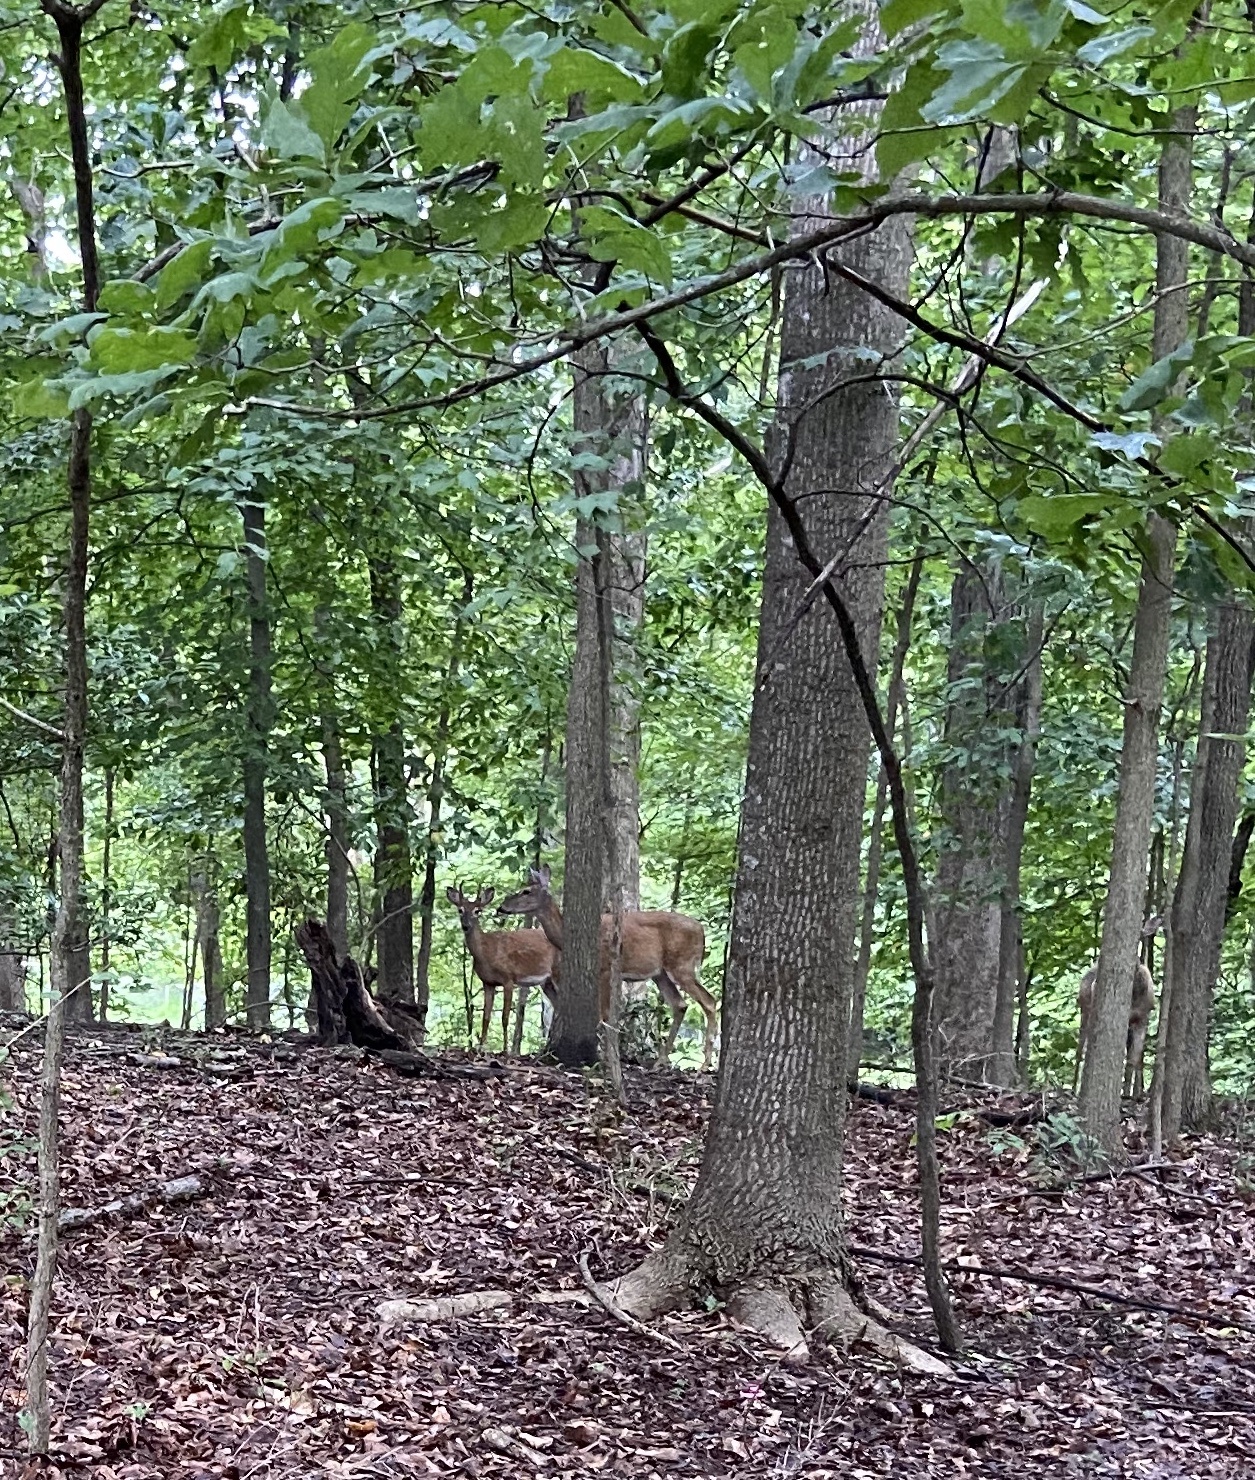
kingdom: Animalia
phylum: Chordata
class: Mammalia
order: Artiodactyla
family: Cervidae
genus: Odocoileus
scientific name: Odocoileus virginianus
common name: White-tailed deer
